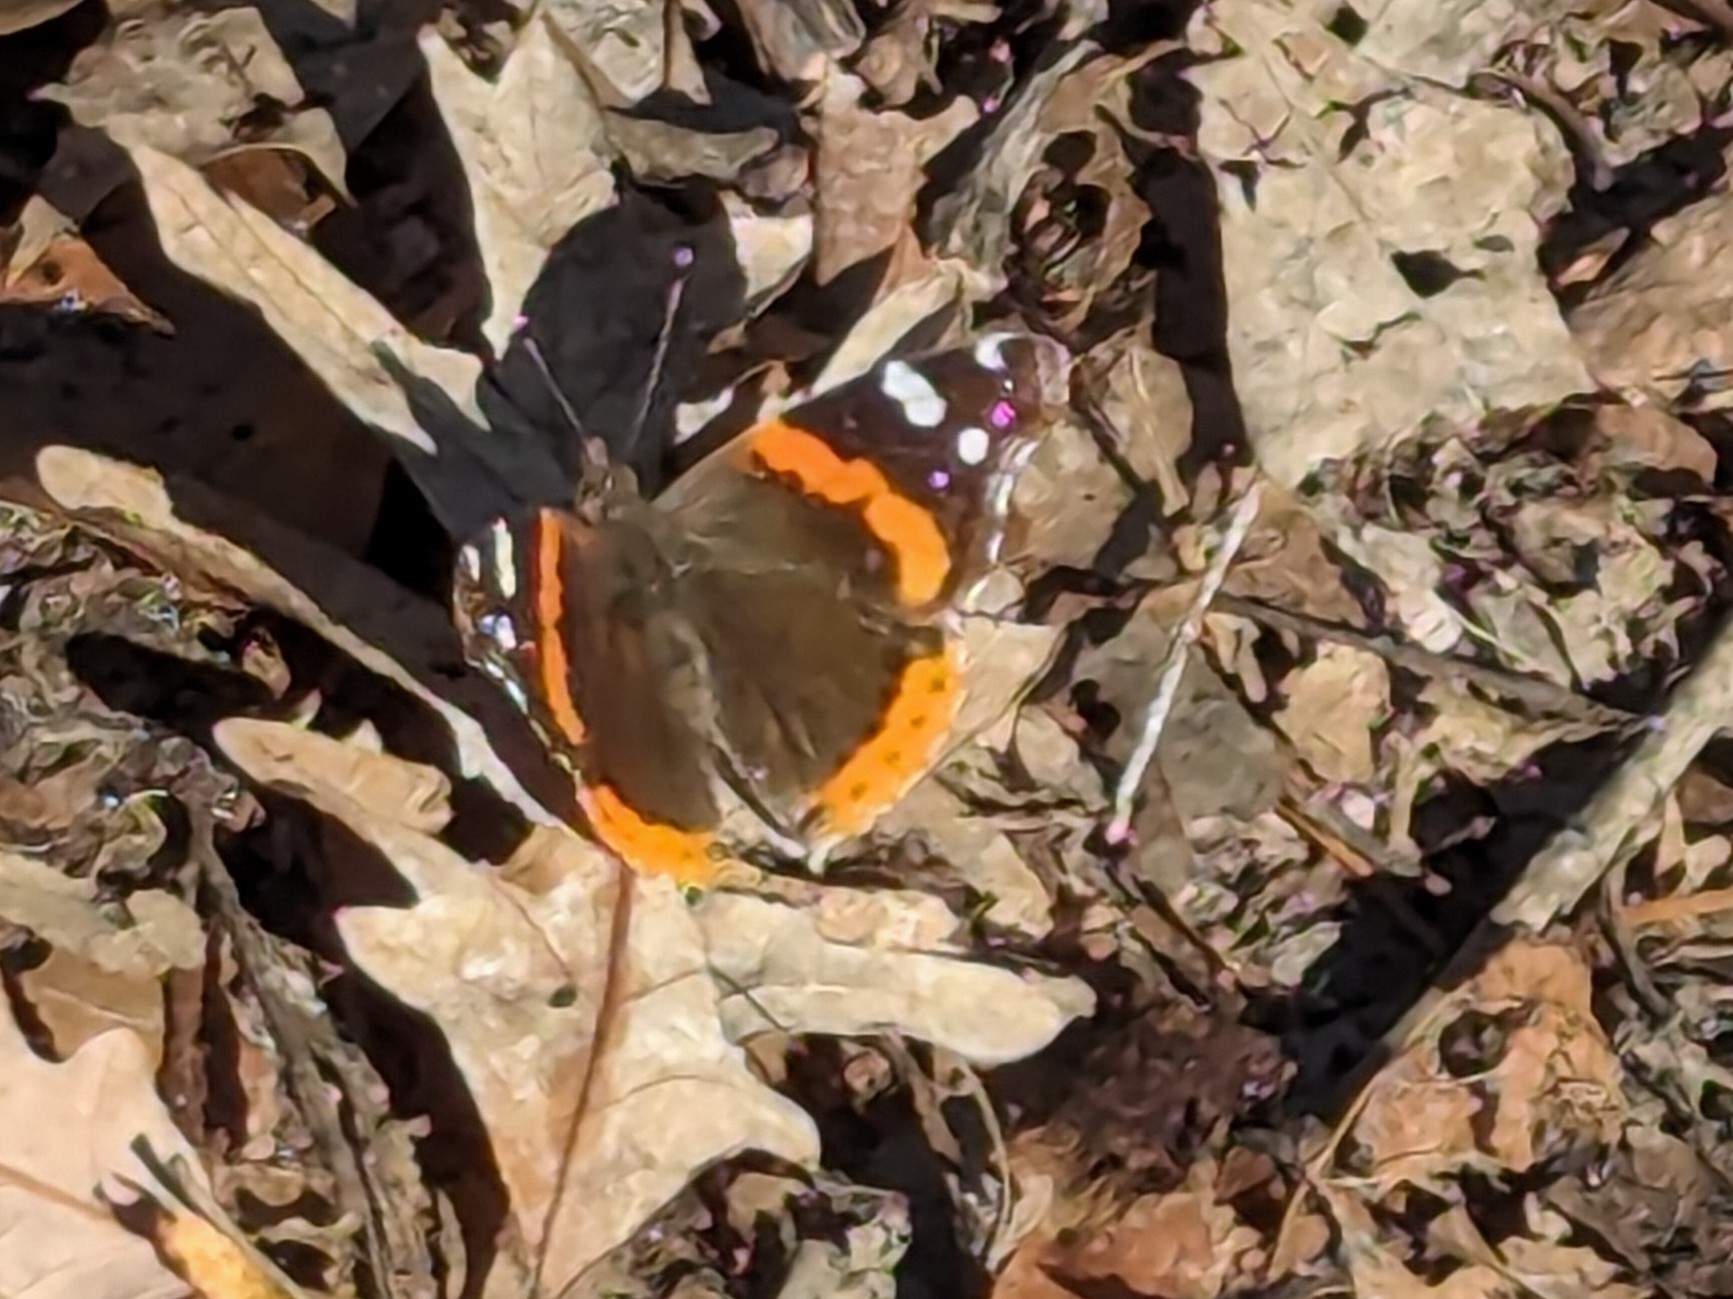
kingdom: Animalia
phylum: Arthropoda
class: Insecta
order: Lepidoptera
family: Nymphalidae
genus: Vanessa
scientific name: Vanessa atalanta
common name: Red admiral
